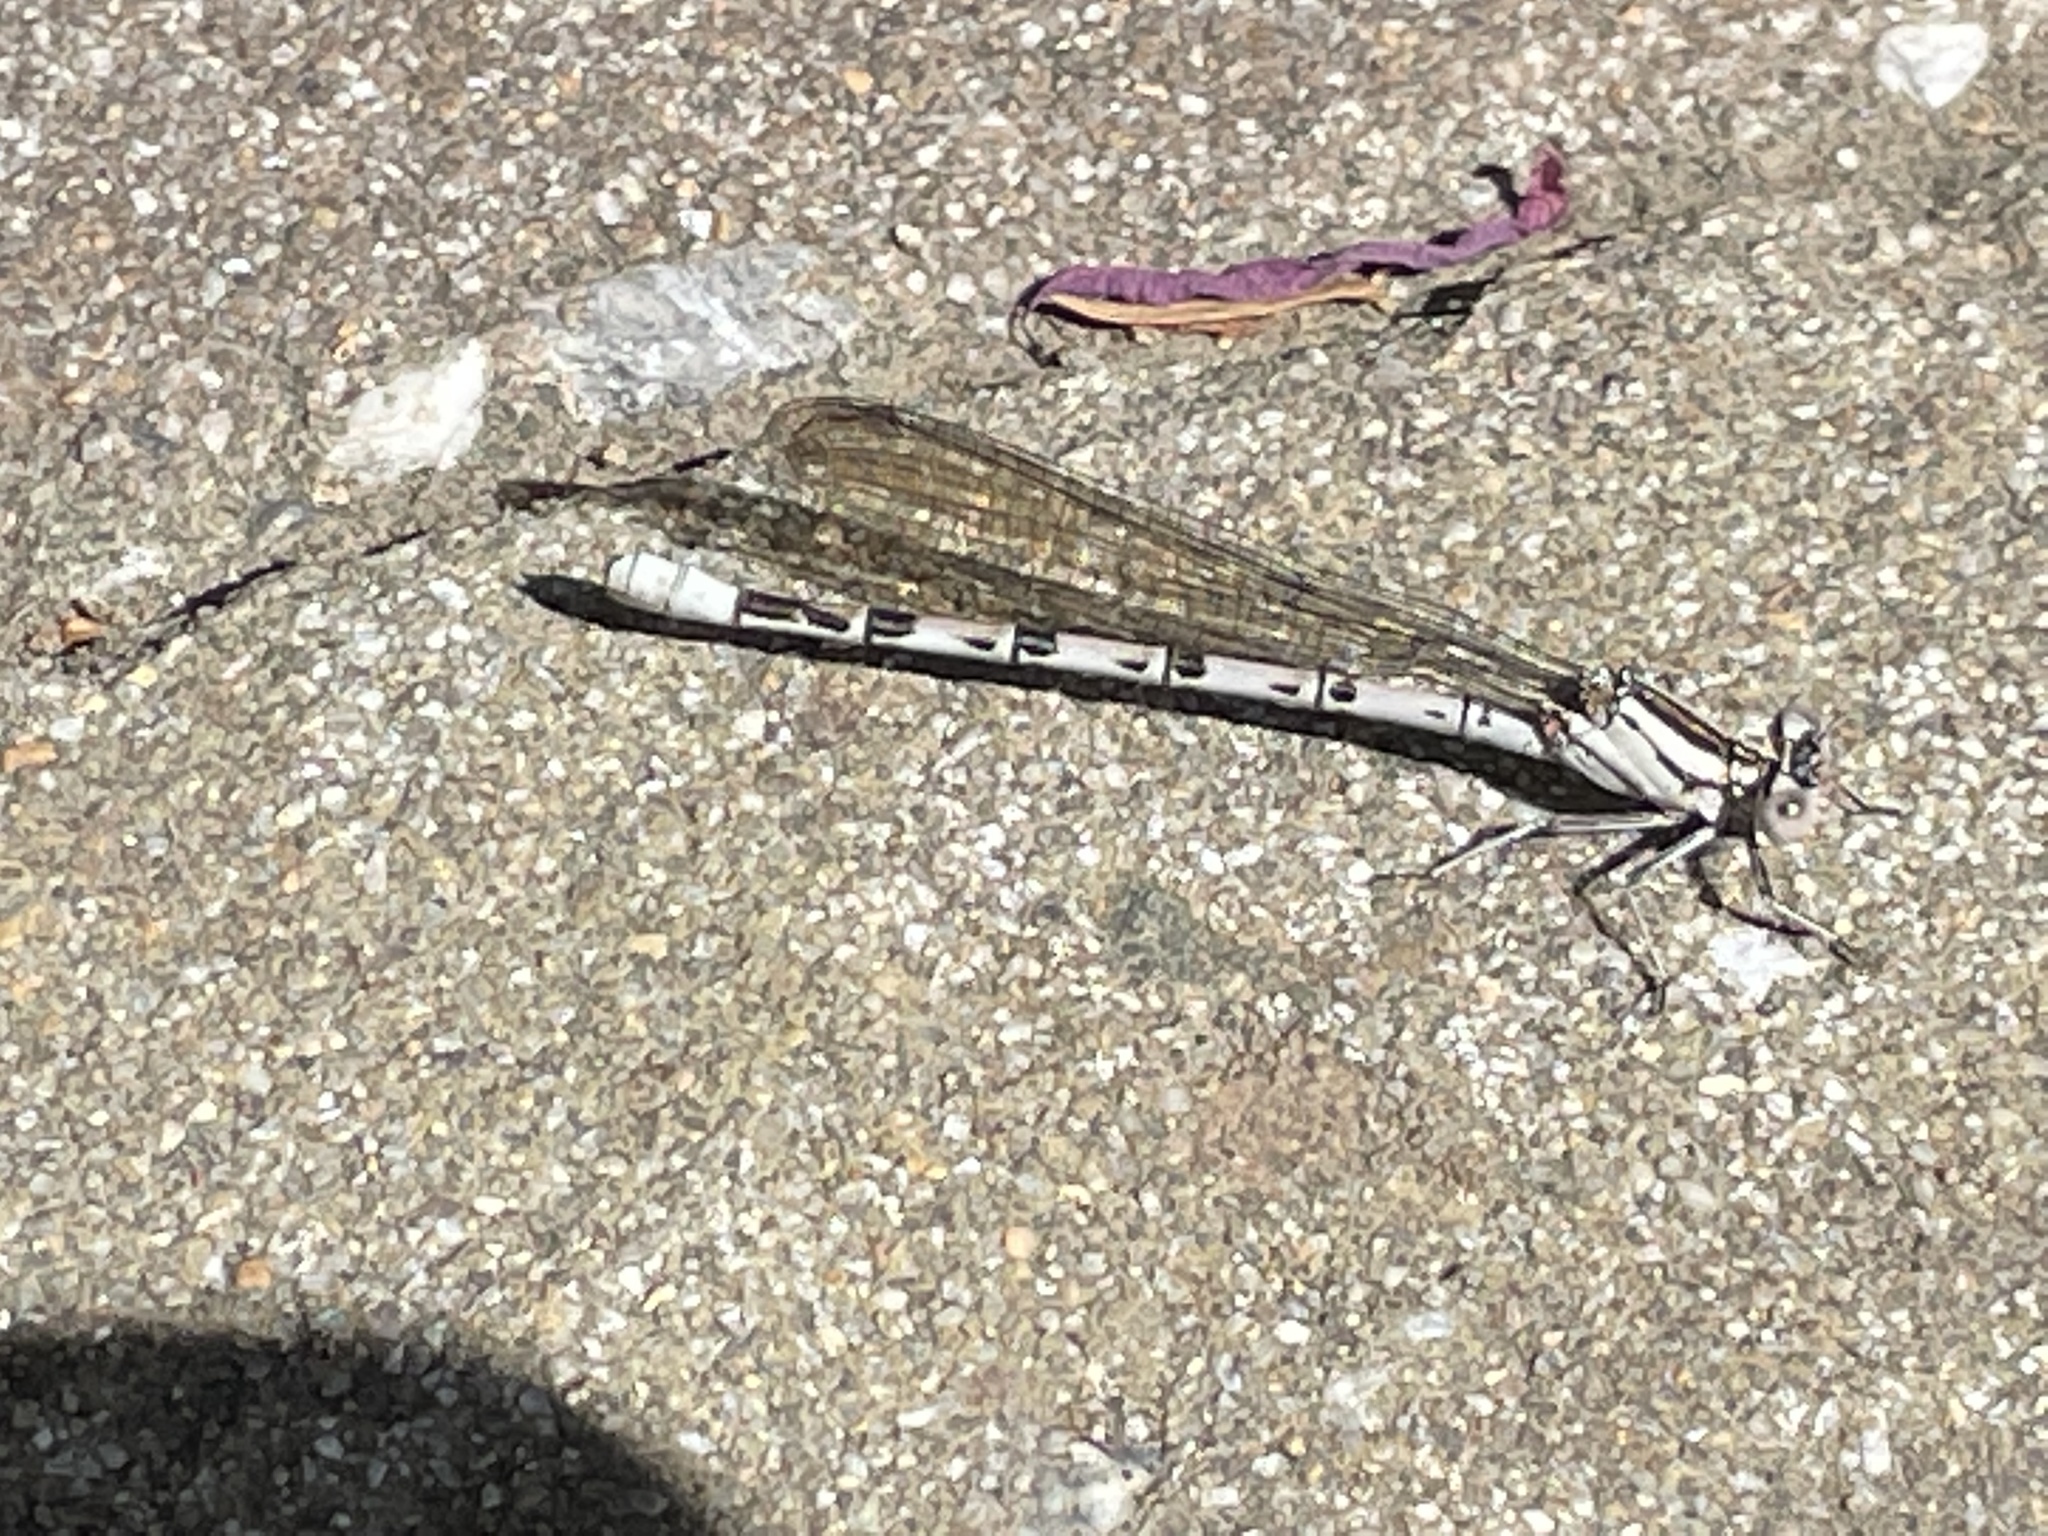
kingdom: Animalia
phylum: Arthropoda
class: Insecta
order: Odonata
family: Coenagrionidae
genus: Argia
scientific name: Argia vivida
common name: Vivid dancer
